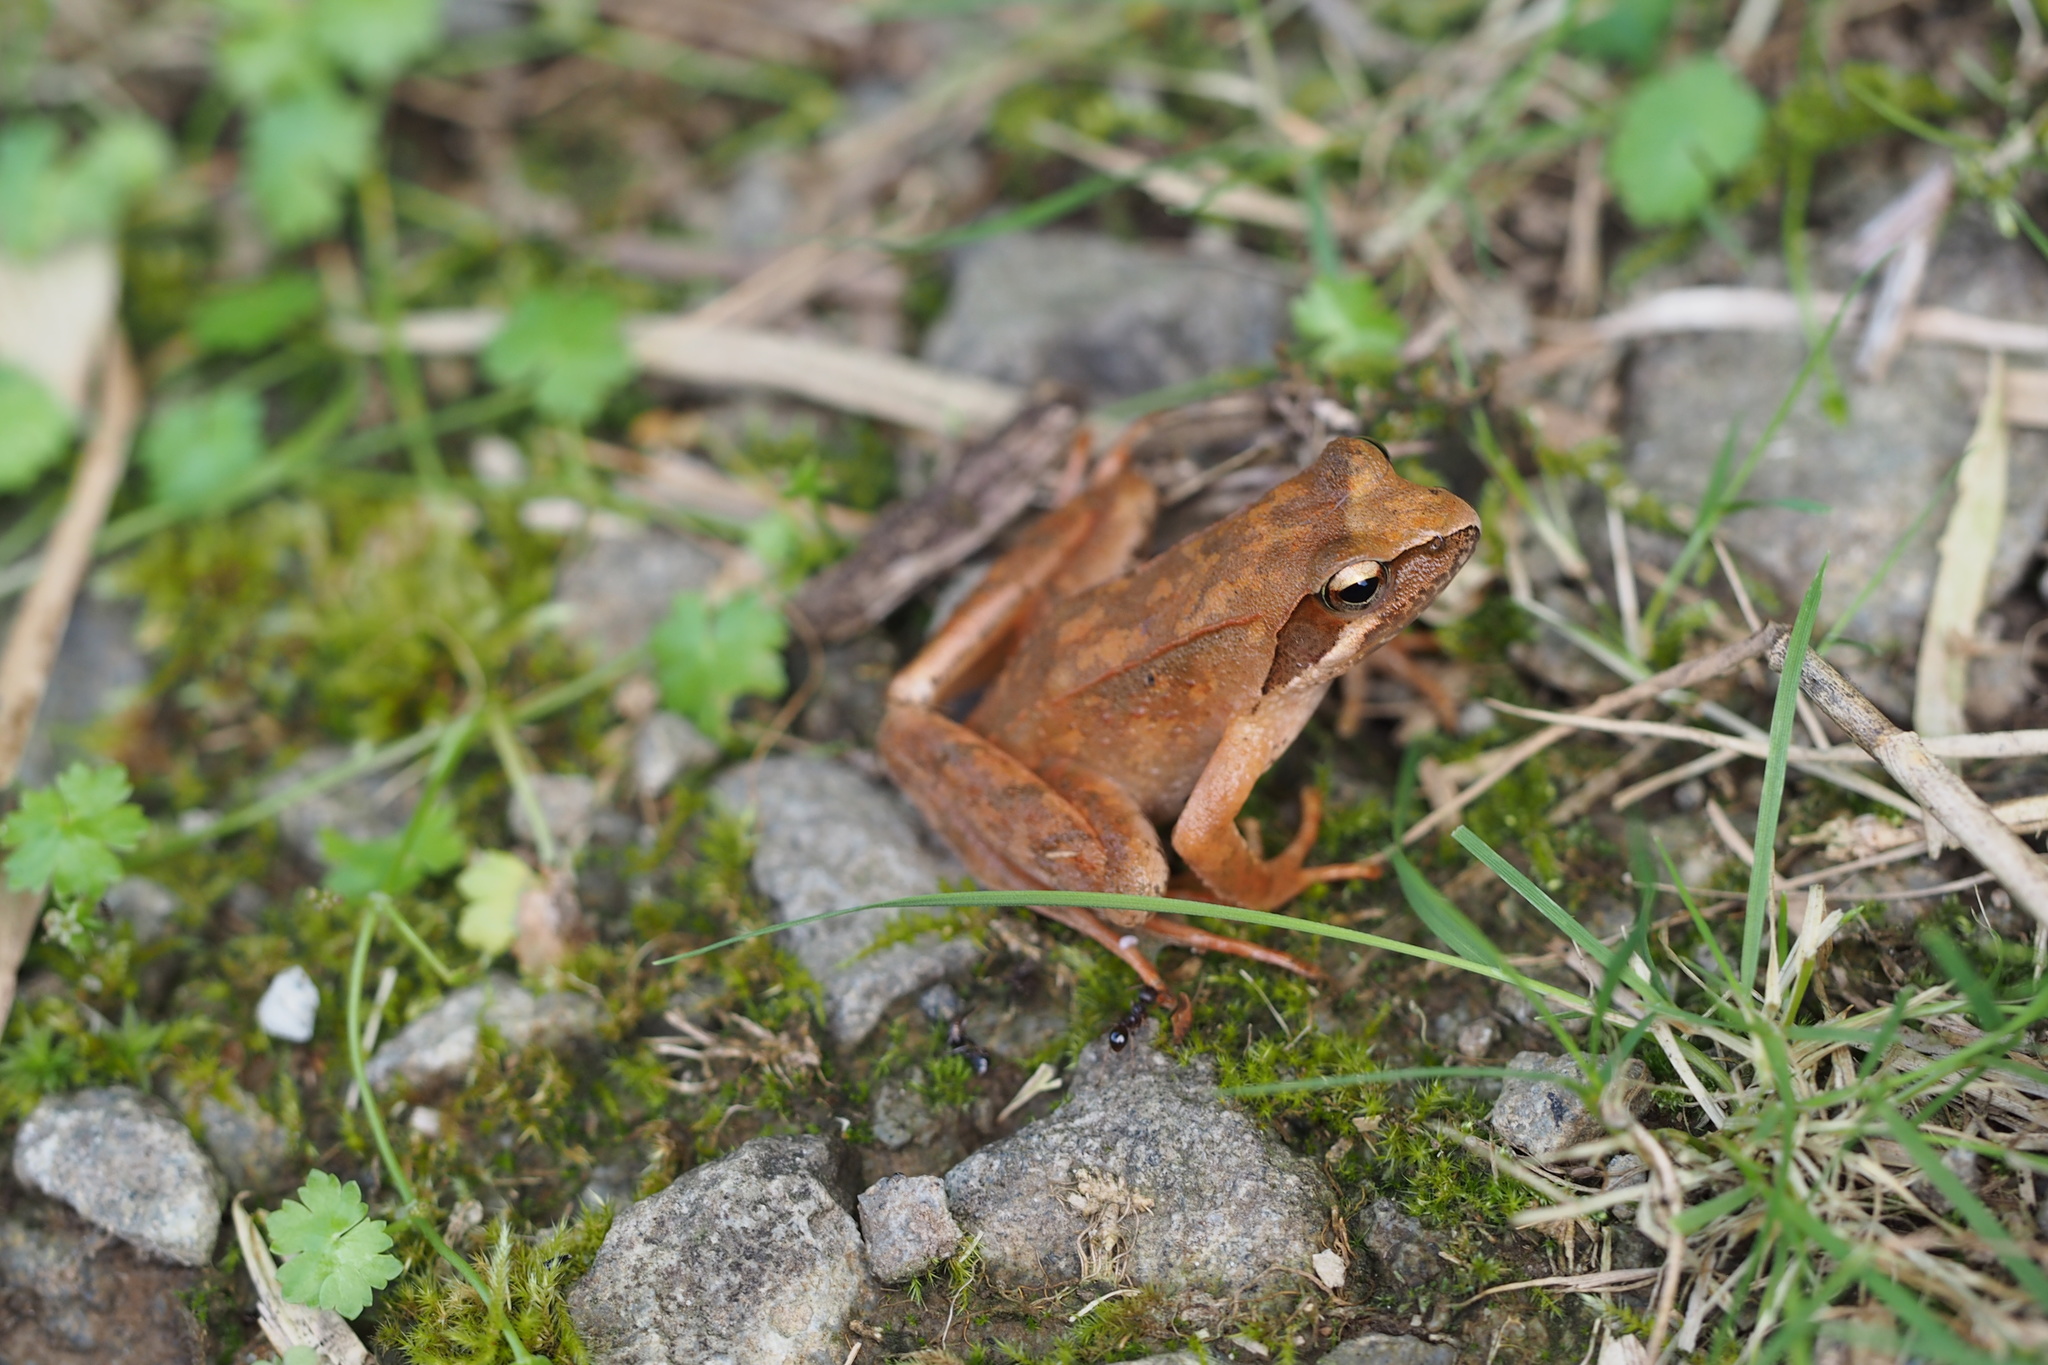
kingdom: Animalia
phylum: Chordata
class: Amphibia
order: Anura
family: Ranidae
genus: Rana
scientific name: Rana japonica
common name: Japanese brown frog
